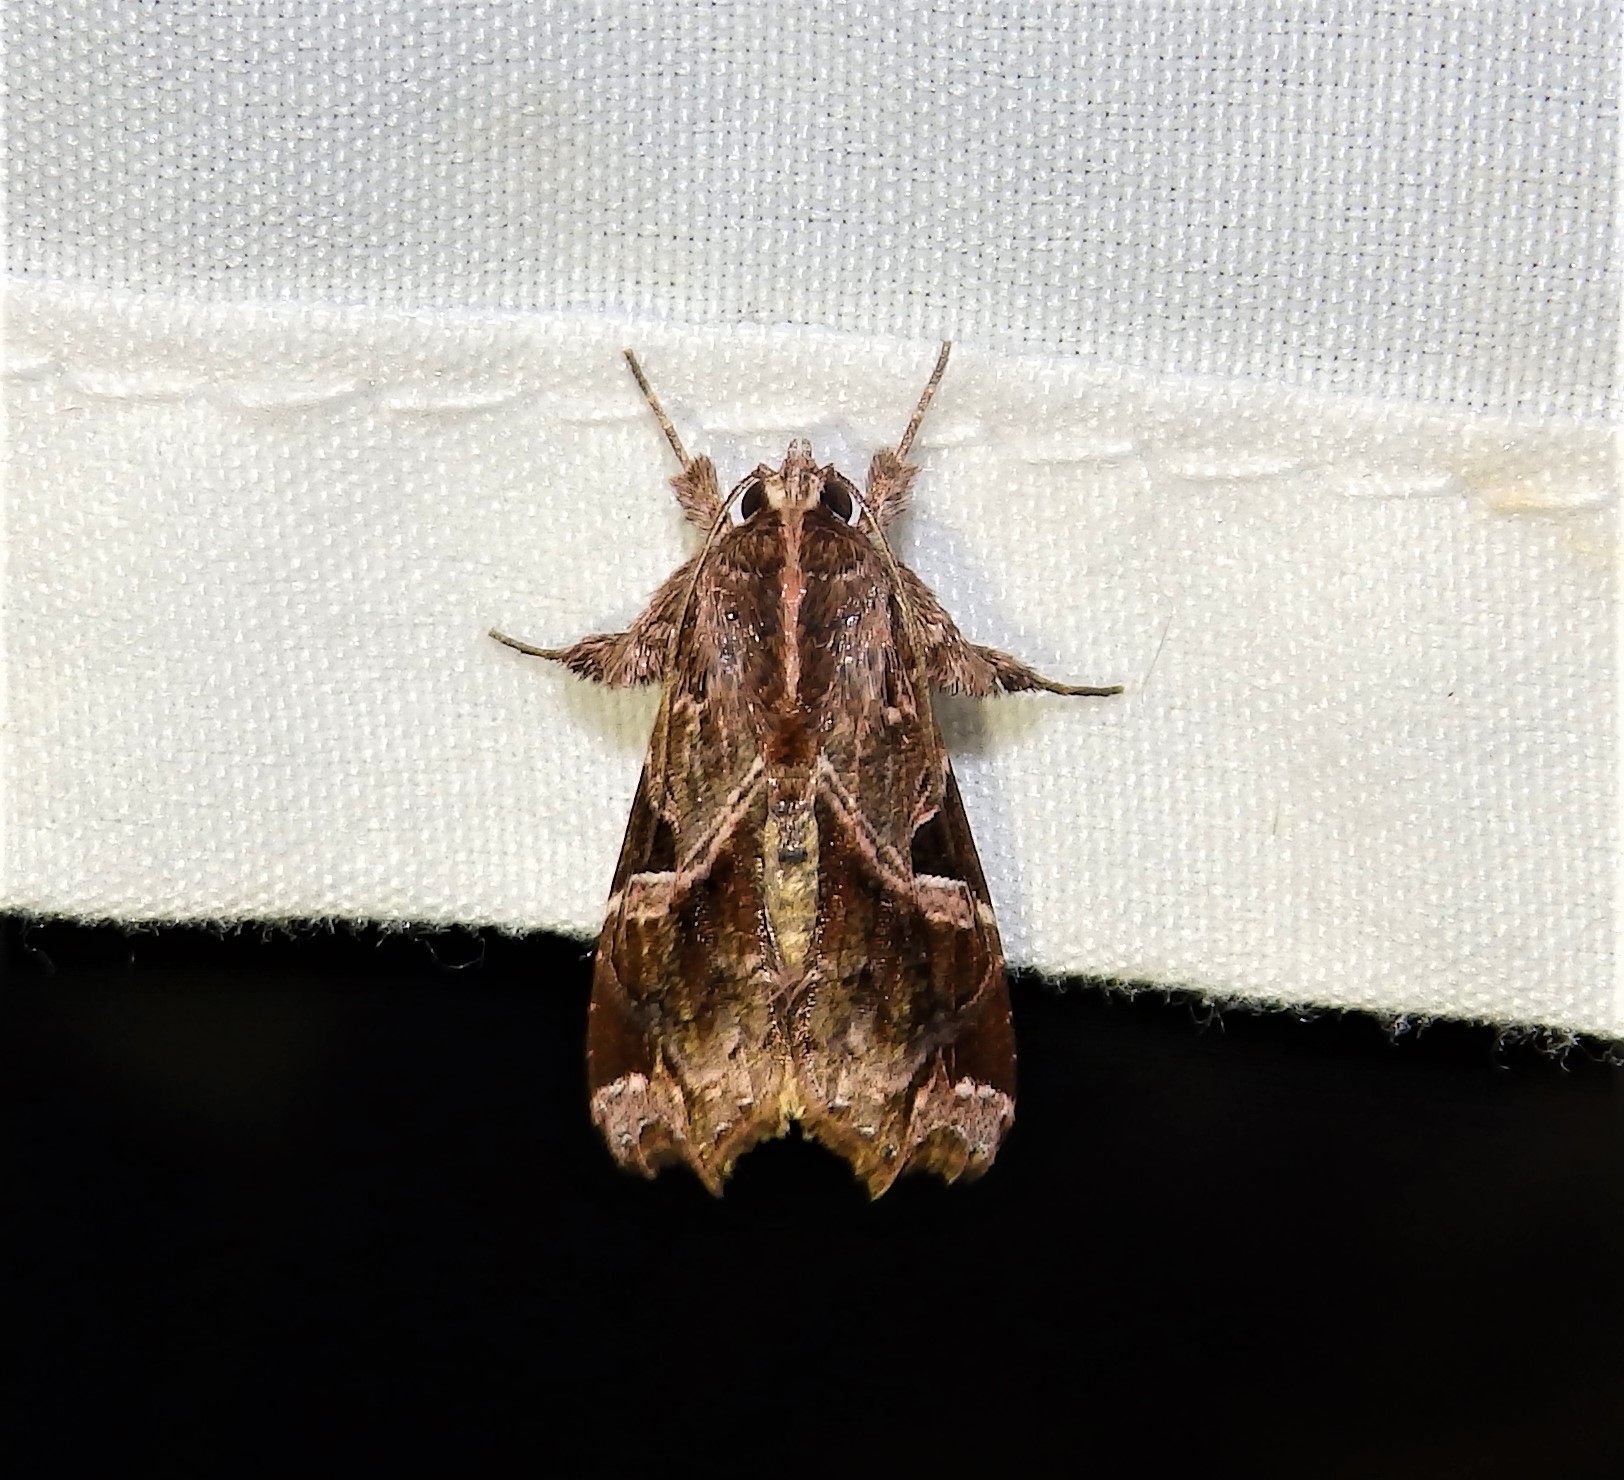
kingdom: Animalia
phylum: Arthropoda
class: Insecta
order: Lepidoptera
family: Noctuidae
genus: Callopistria
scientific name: Callopistria floridensis
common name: Florida fern moth
